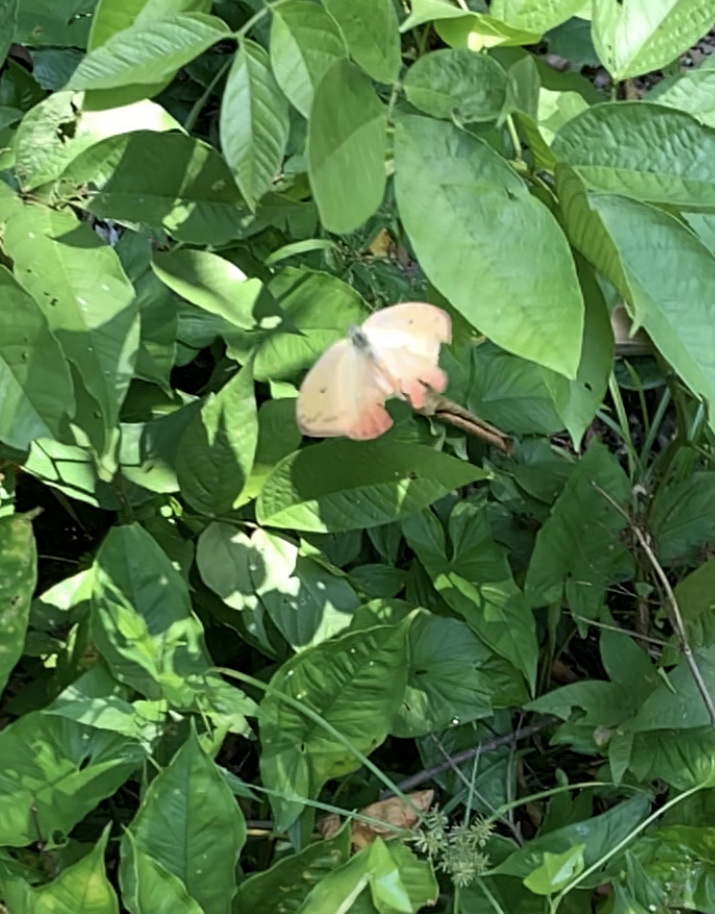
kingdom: Animalia
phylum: Arthropoda
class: Insecta
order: Lepidoptera
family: Pieridae
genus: Phoebis
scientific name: Phoebis philea
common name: Orange-barred giant sulphur
